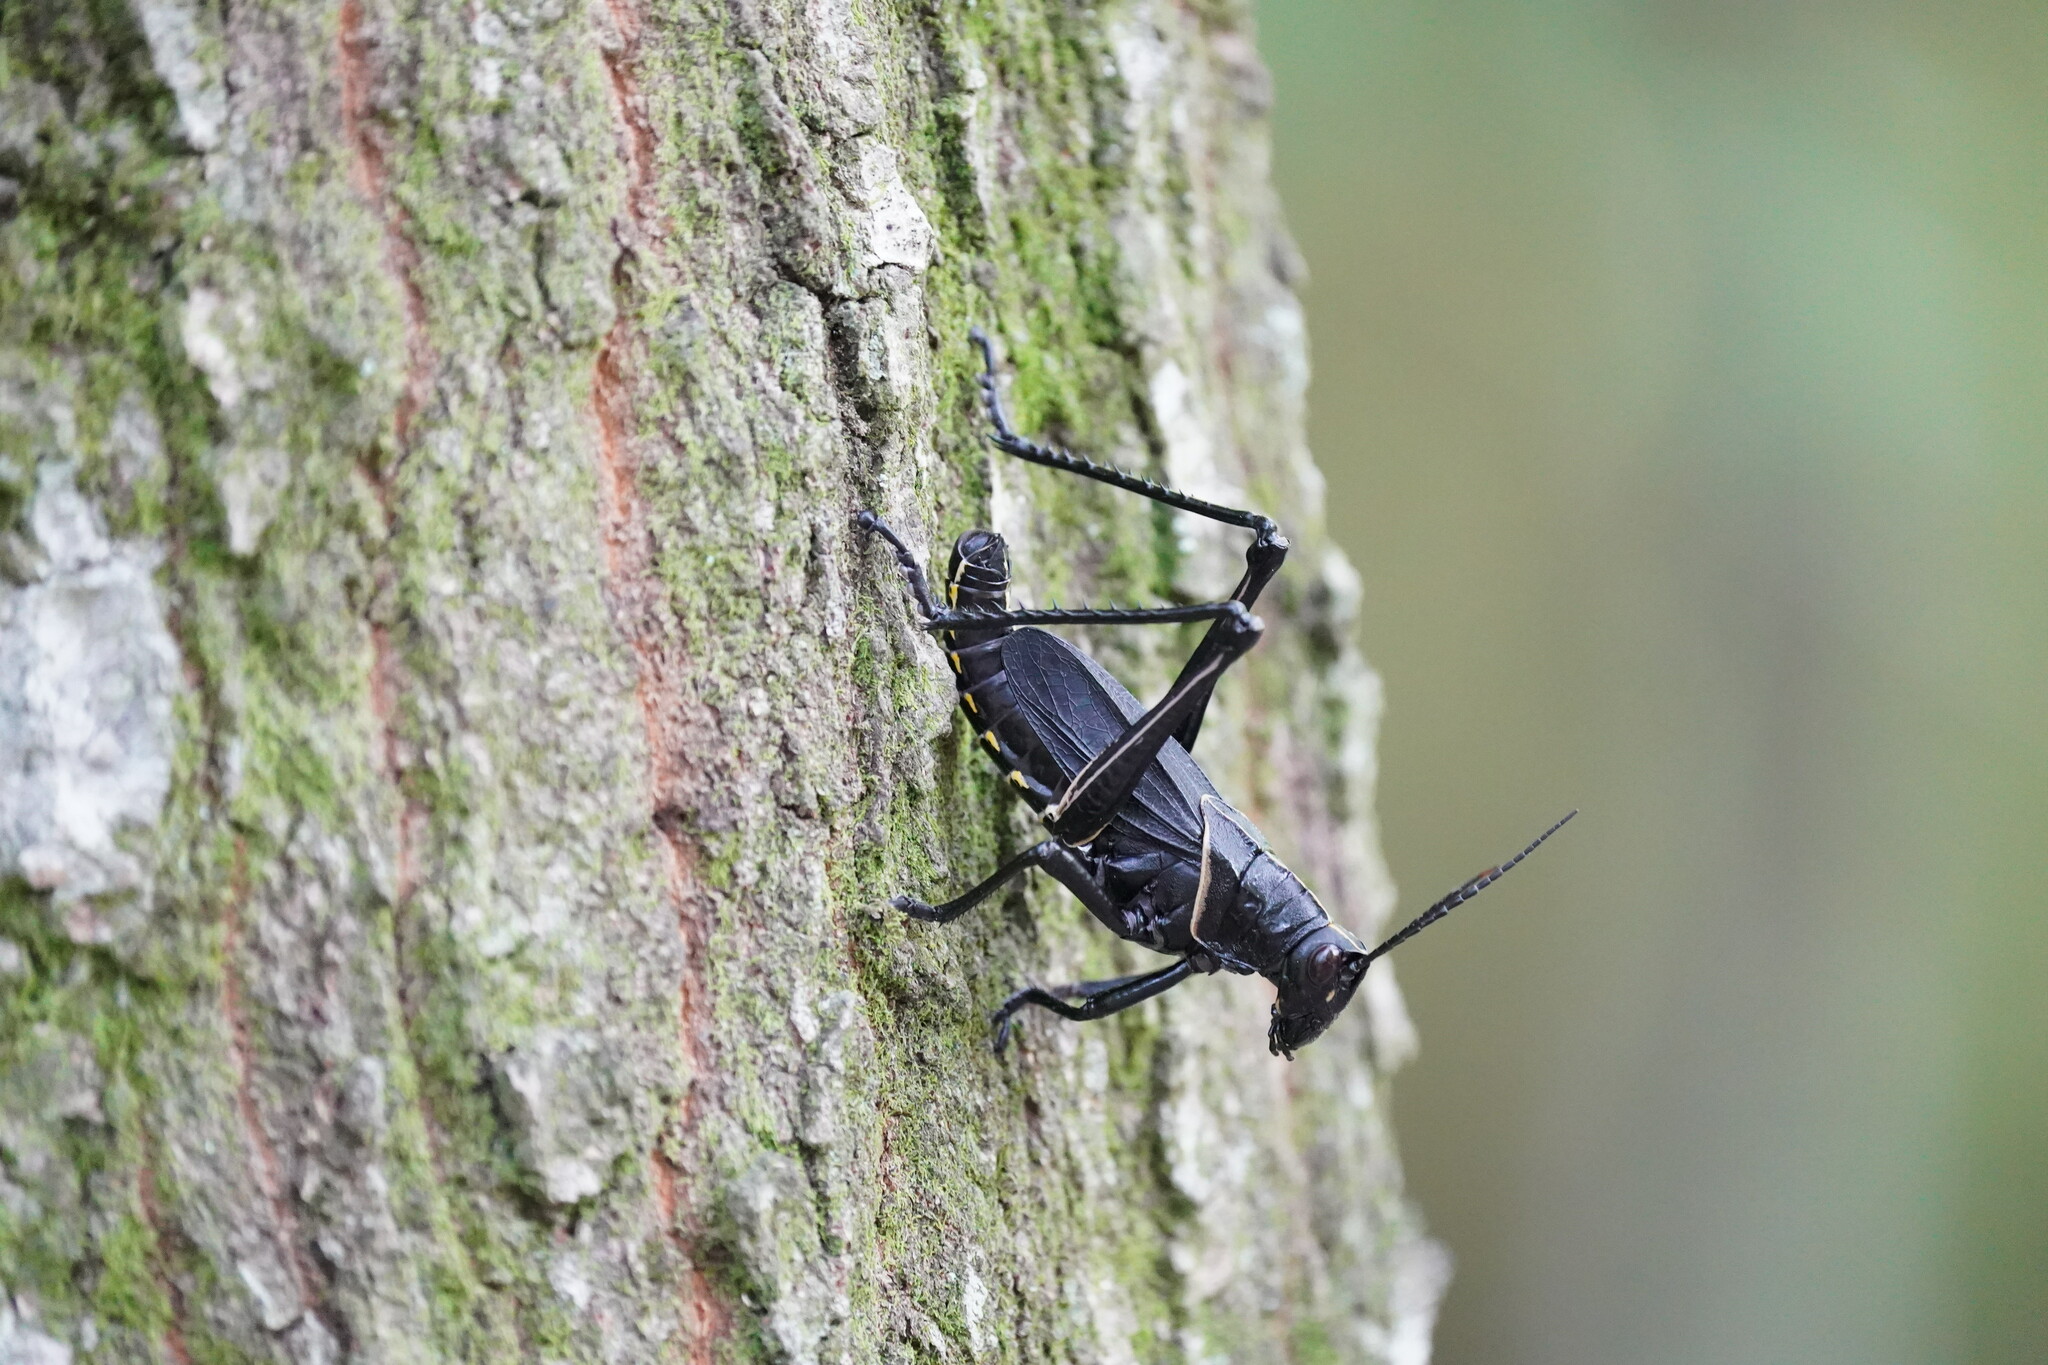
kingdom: Animalia
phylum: Arthropoda
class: Insecta
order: Orthoptera
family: Romaleidae
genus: Romalea
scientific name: Romalea microptera
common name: Eastern lubber grasshopper
